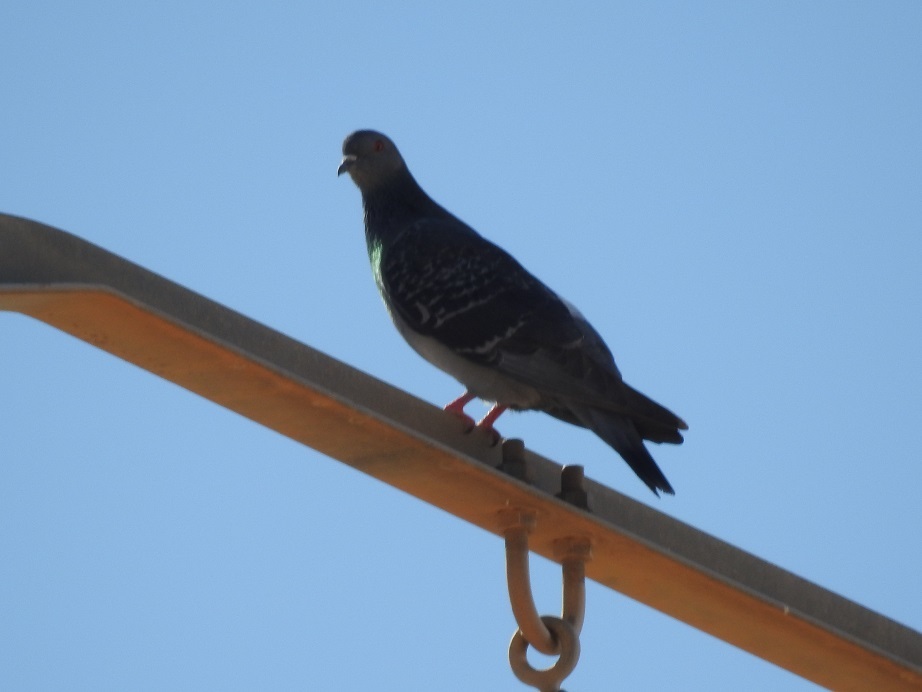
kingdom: Animalia
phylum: Chordata
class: Aves
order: Columbiformes
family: Columbidae
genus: Columba
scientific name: Columba livia
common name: Rock pigeon
